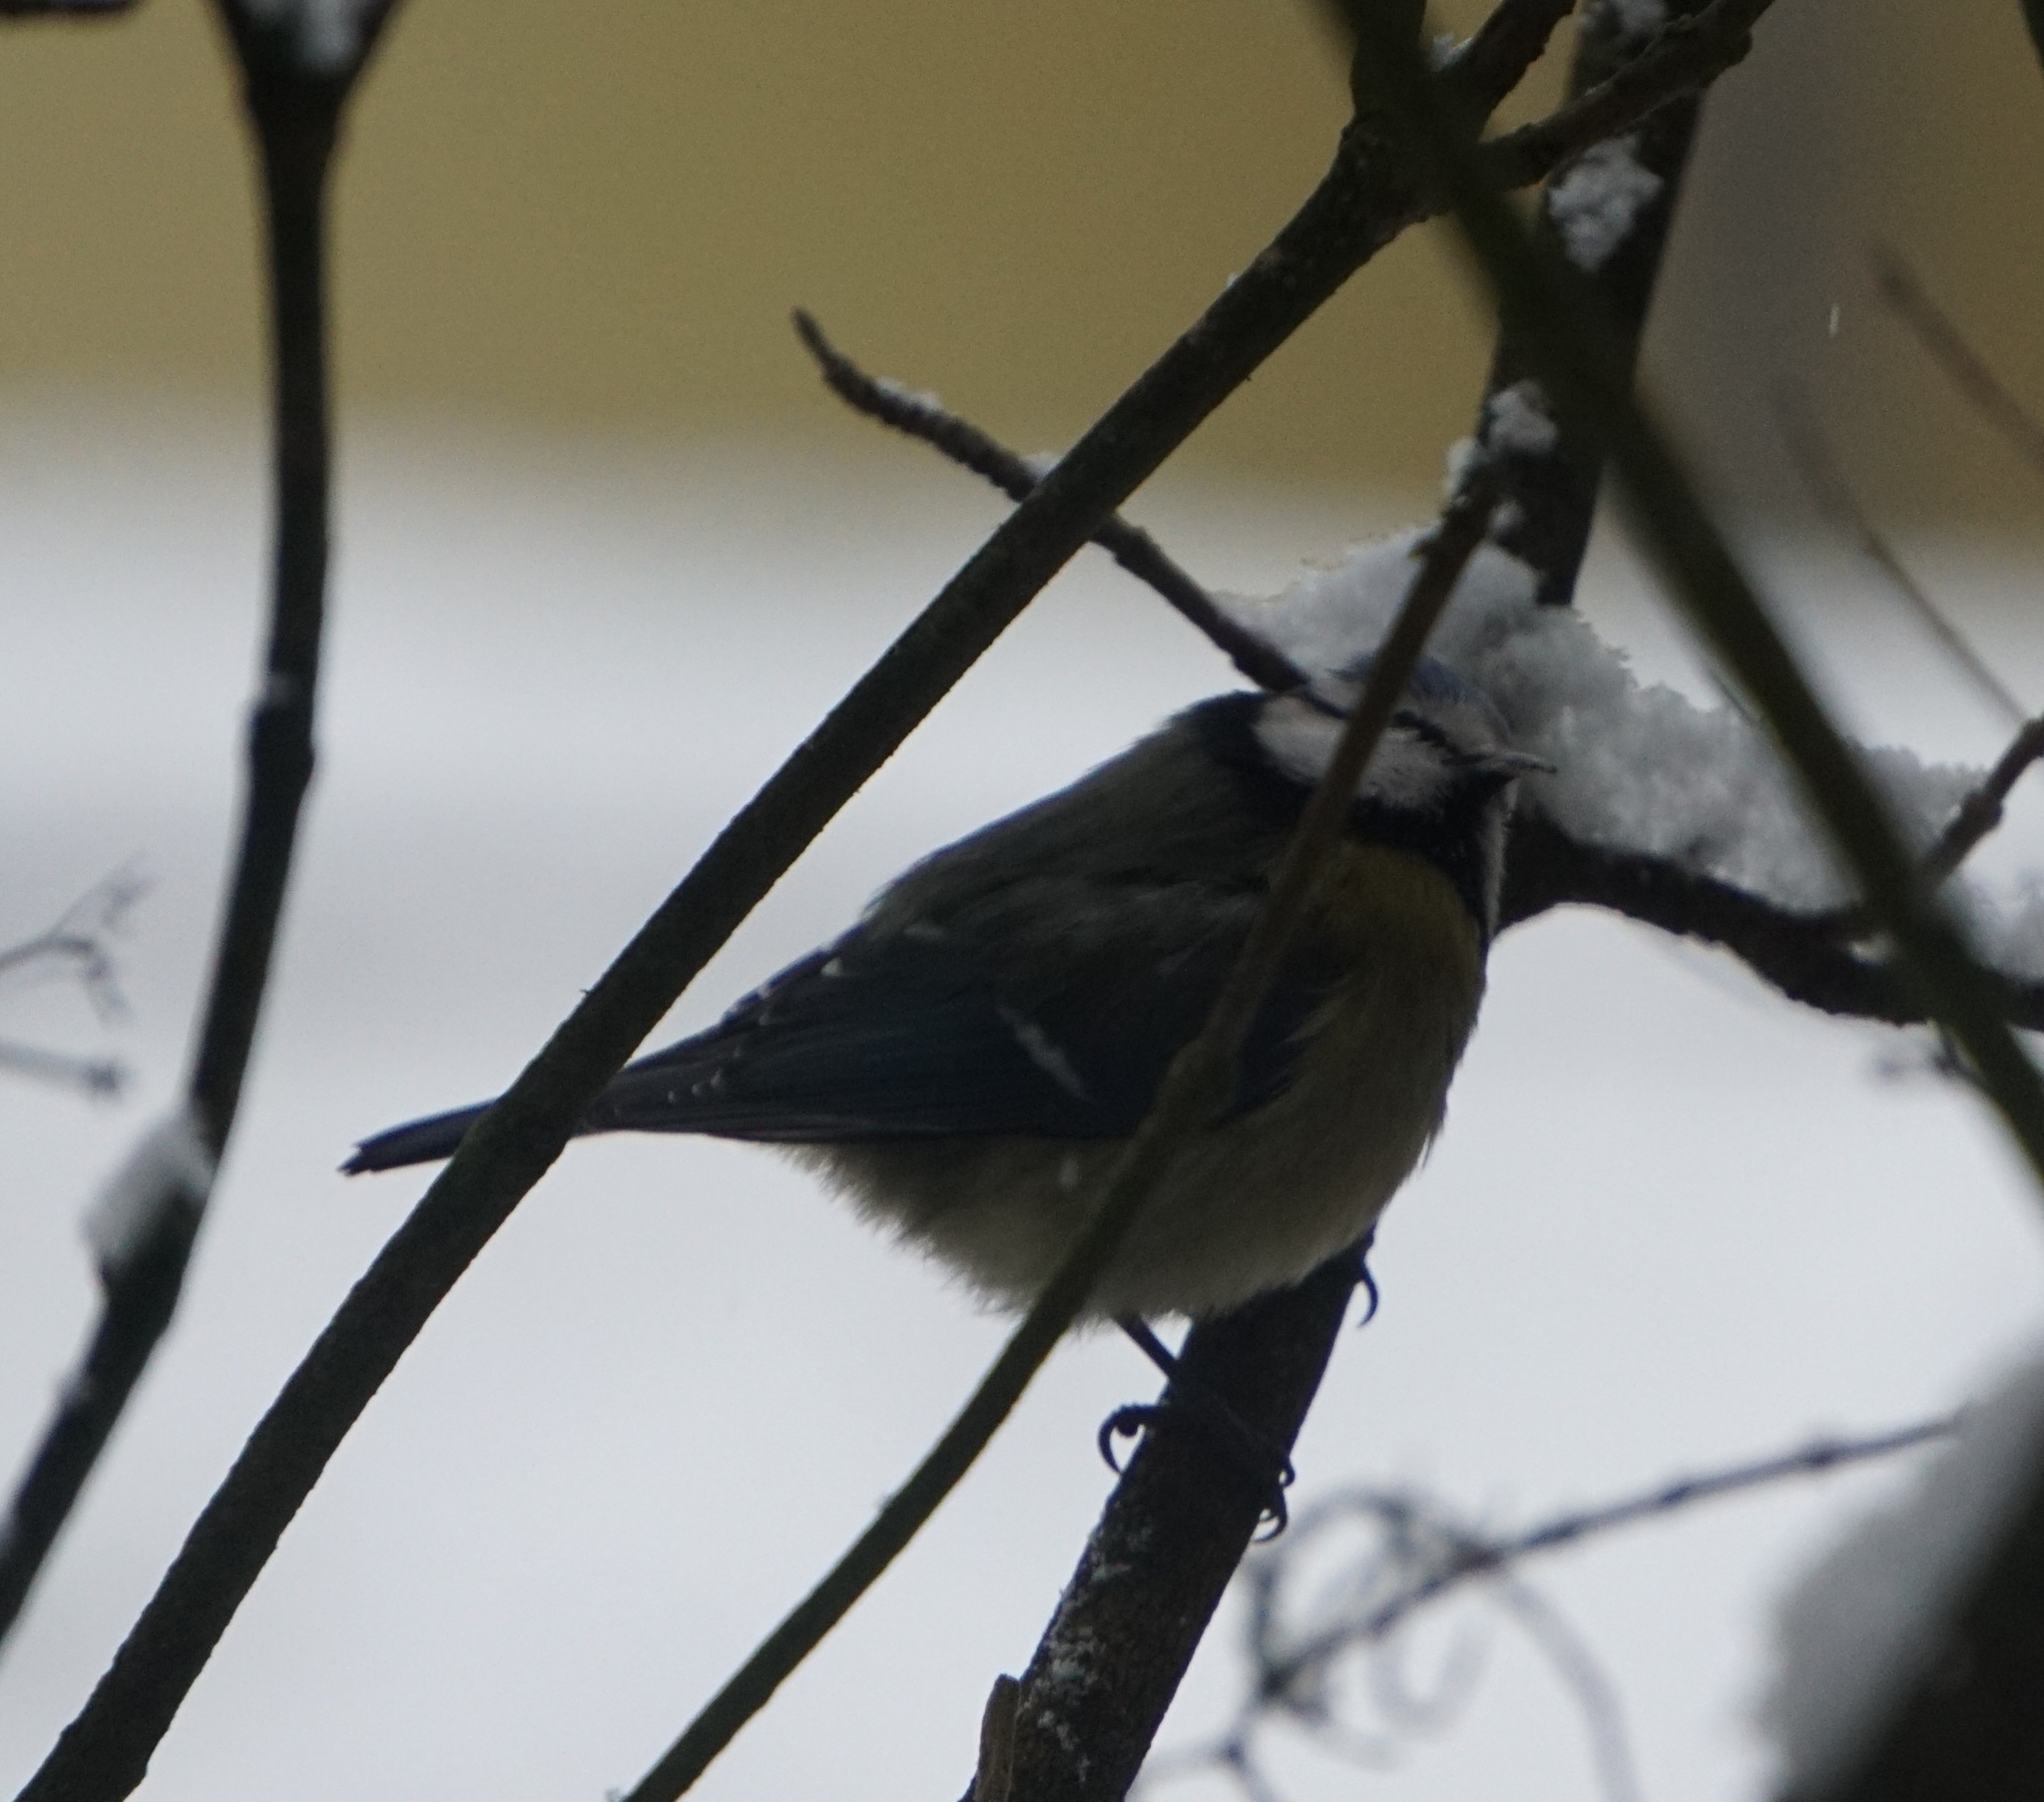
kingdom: Animalia
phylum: Chordata
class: Aves
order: Passeriformes
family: Paridae
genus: Cyanistes
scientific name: Cyanistes caeruleus
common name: Eurasian blue tit
